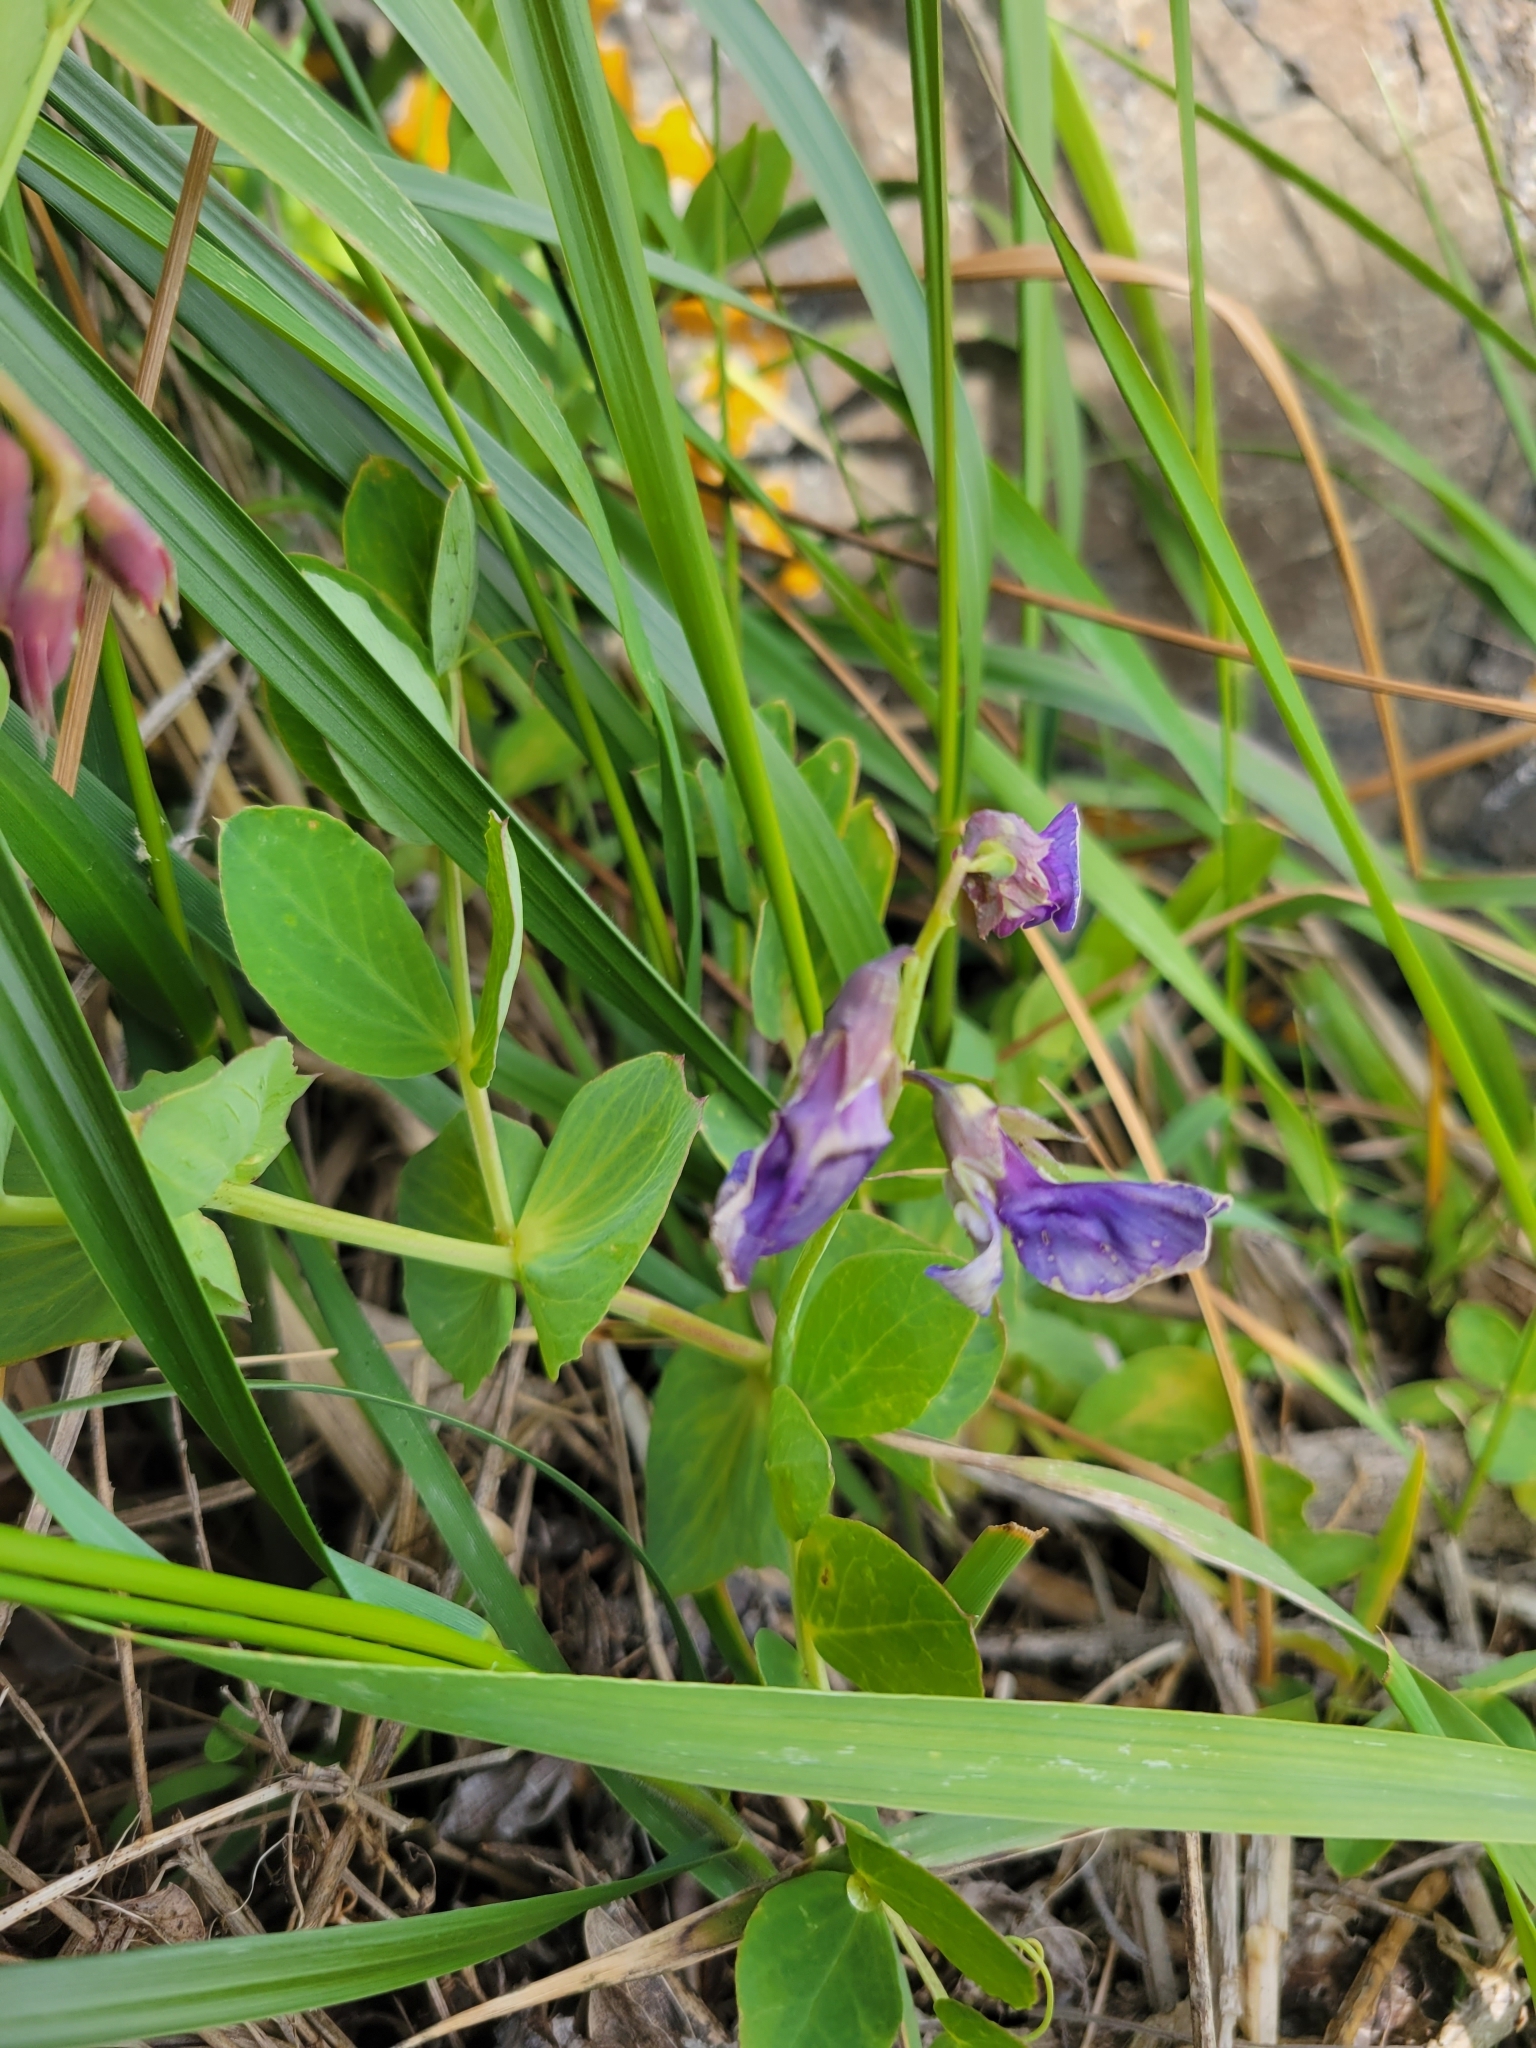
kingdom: Plantae
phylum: Tracheophyta
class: Magnoliopsida
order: Fabales
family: Fabaceae
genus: Lathyrus
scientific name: Lathyrus japonicus
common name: Sea pea
